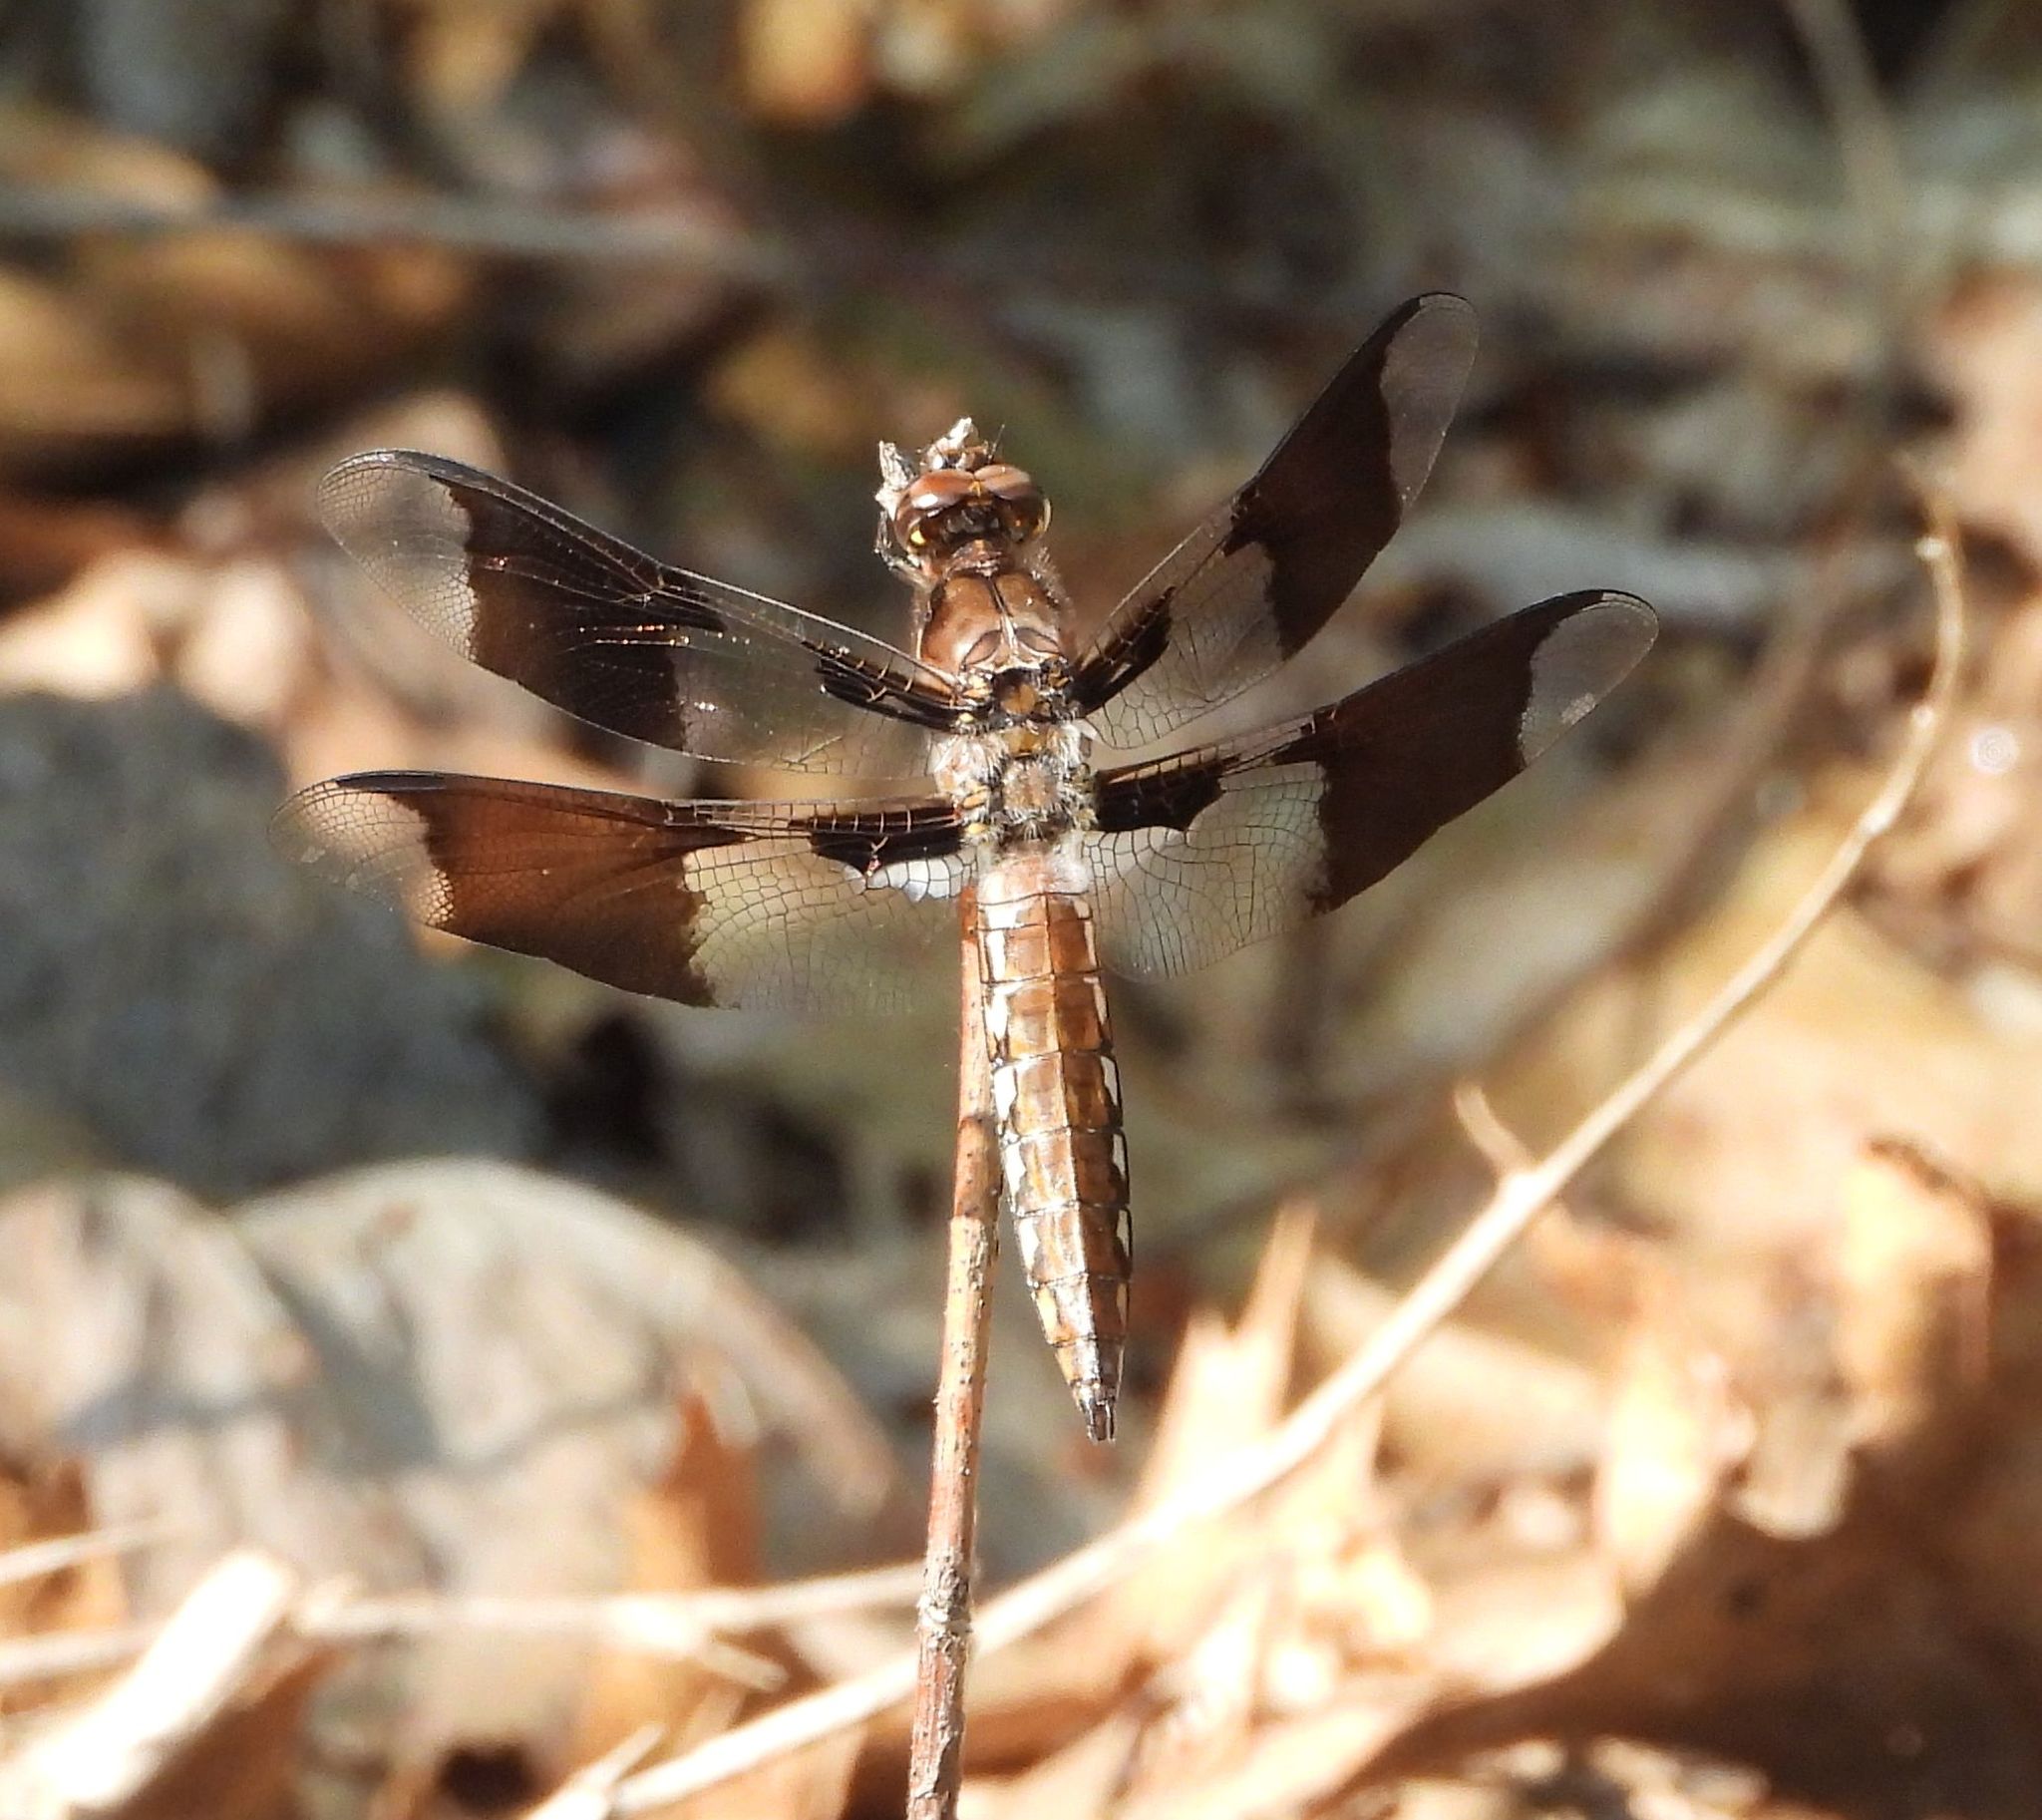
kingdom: Animalia
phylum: Arthropoda
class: Insecta
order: Odonata
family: Libellulidae
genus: Plathemis
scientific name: Plathemis lydia
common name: Common whitetail
